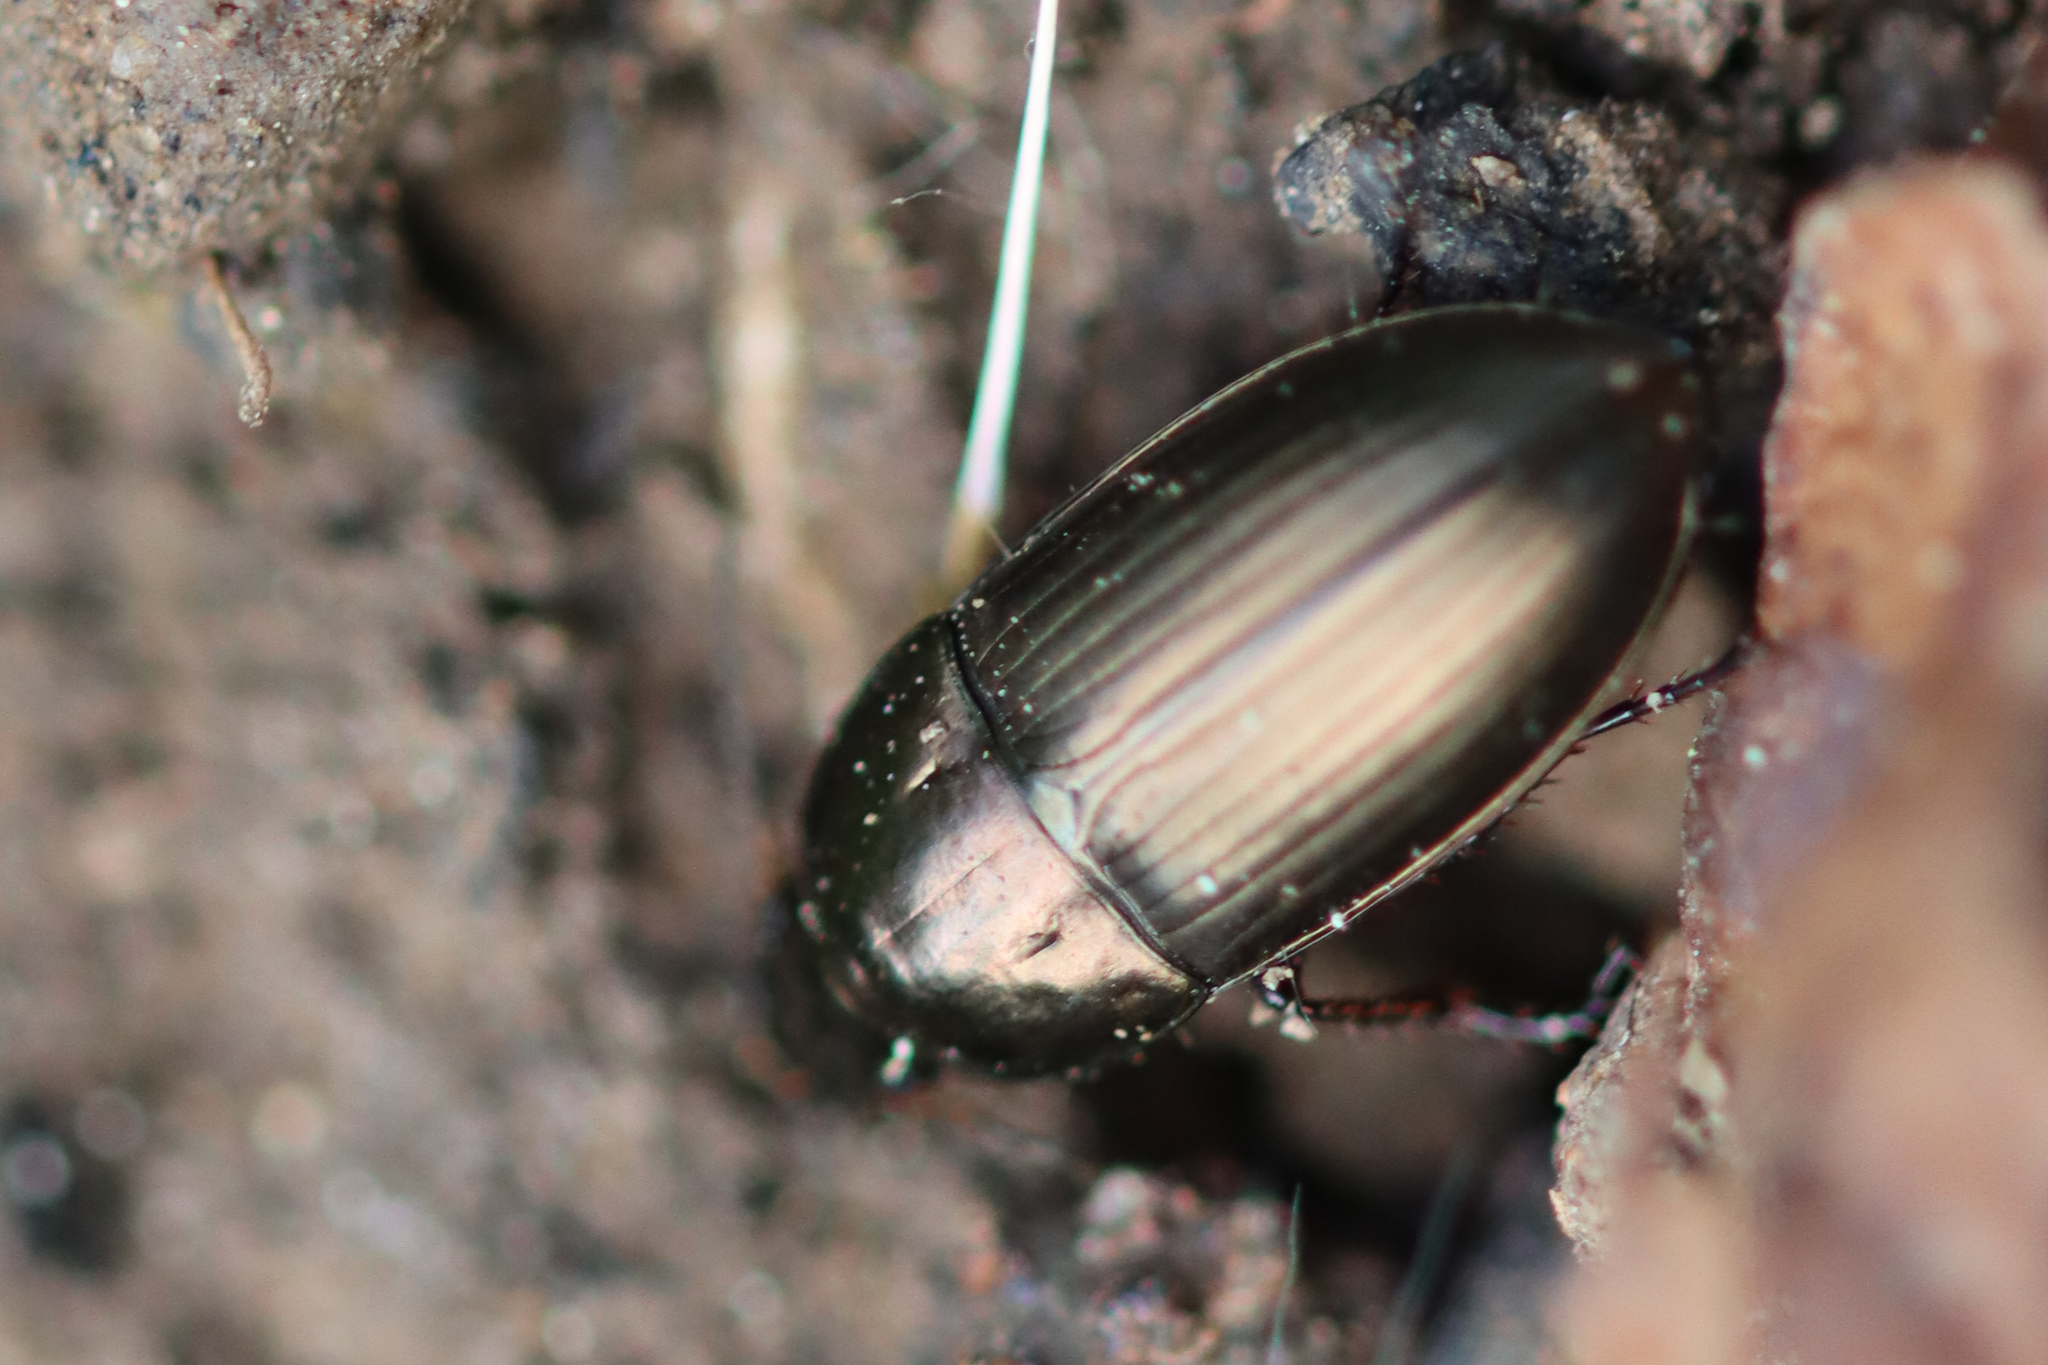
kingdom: Animalia
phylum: Arthropoda
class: Insecta
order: Coleoptera
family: Carabidae
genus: Amara
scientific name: Amara aenea
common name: Common sun beetle
